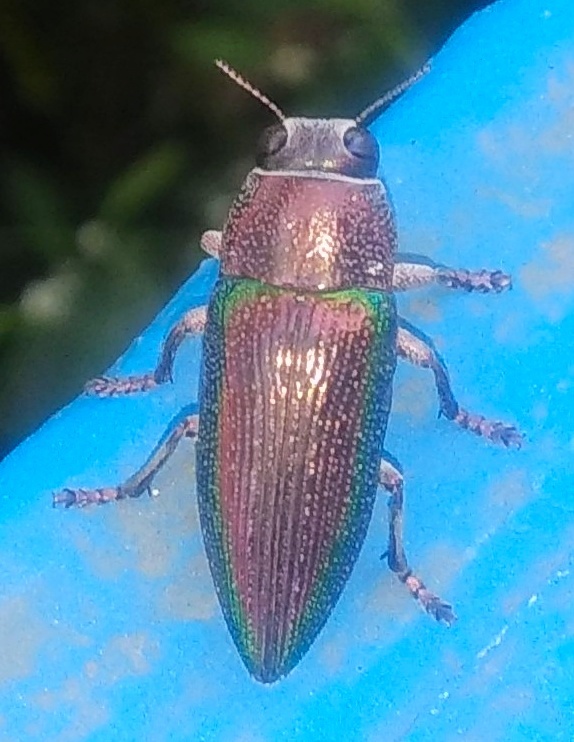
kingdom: Animalia
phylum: Arthropoda
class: Insecta
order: Coleoptera
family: Buprestidae
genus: Lampetis
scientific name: Lampetis fastuosa
